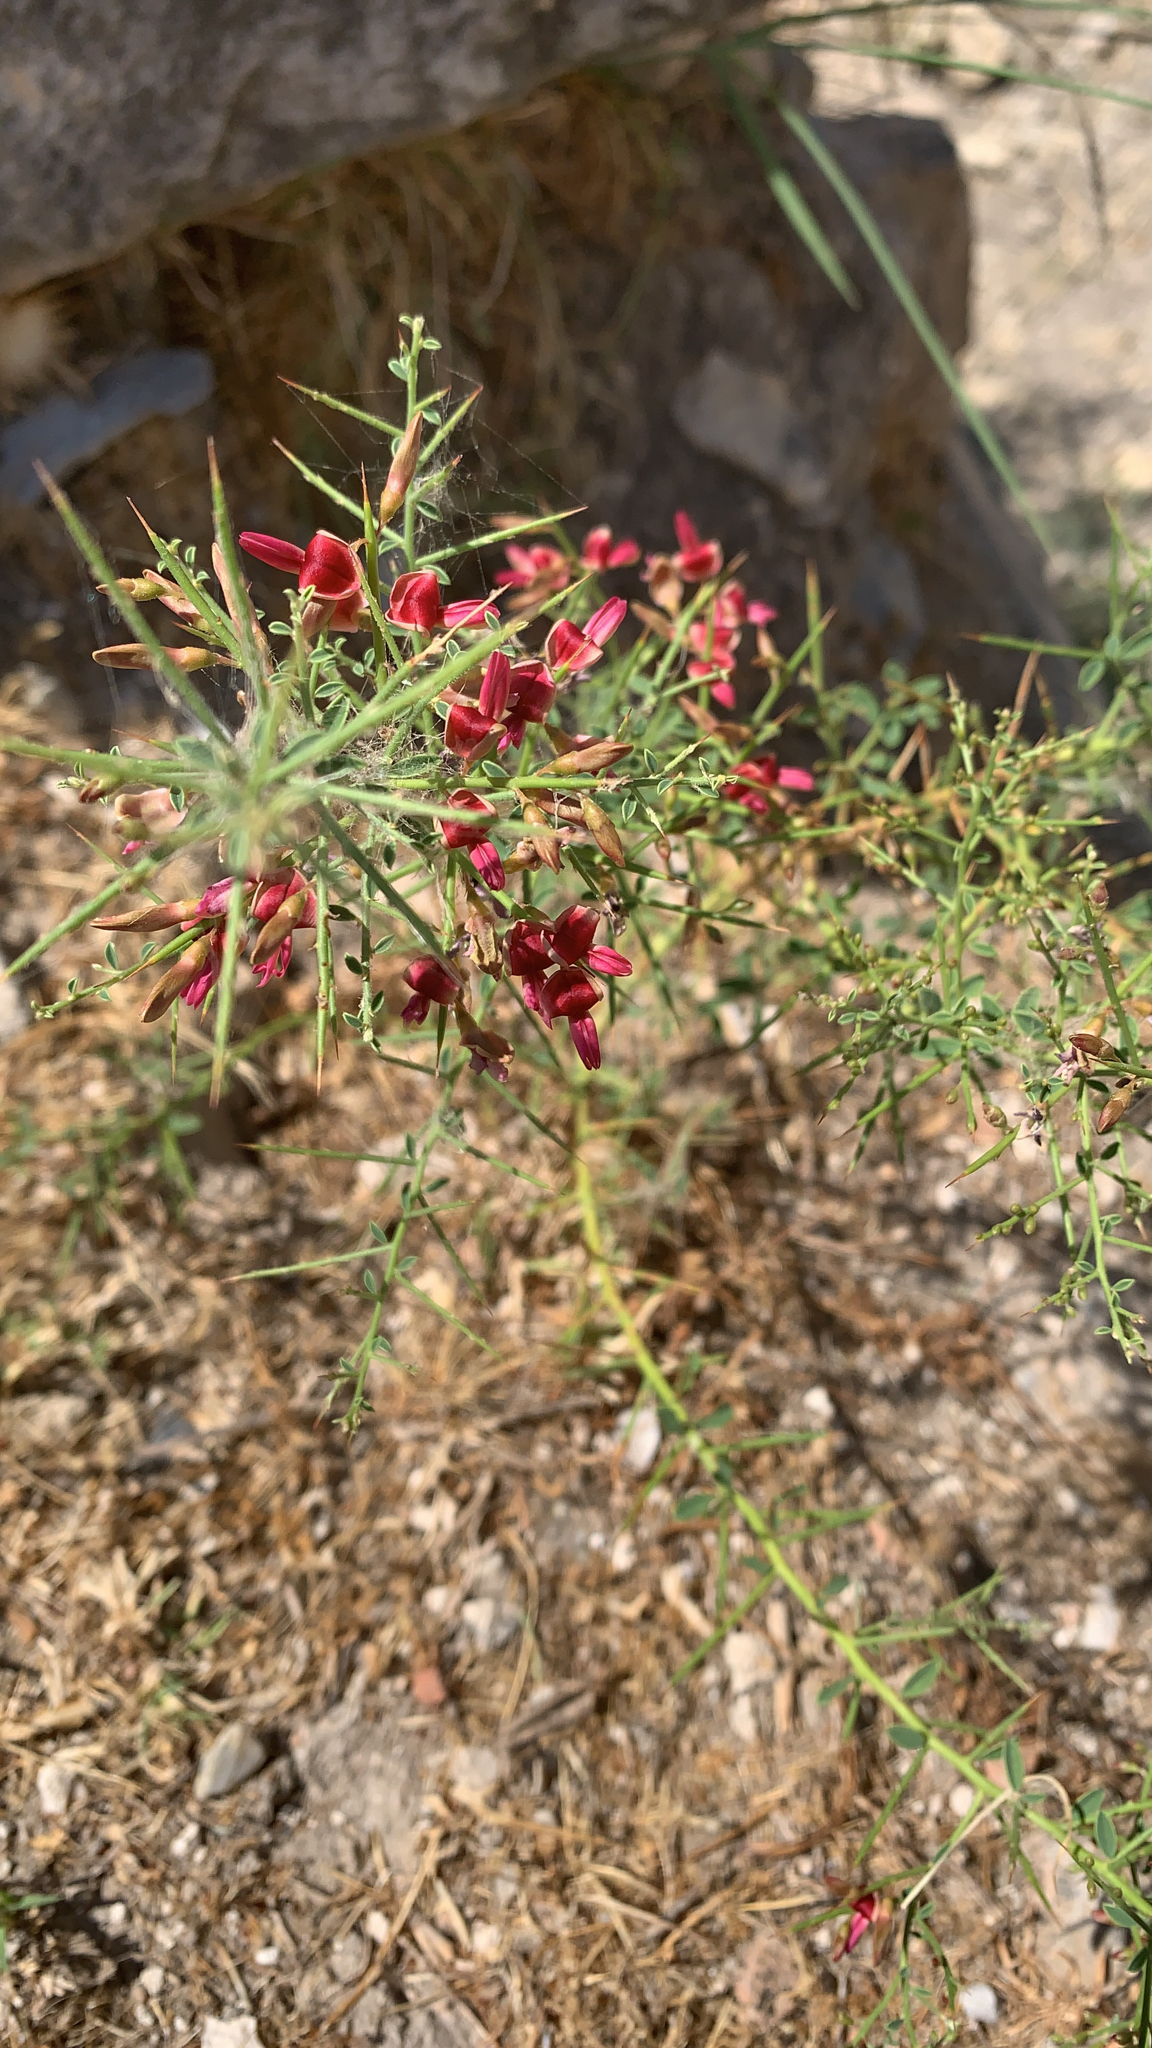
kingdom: Plantae
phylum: Tracheophyta
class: Magnoliopsida
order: Fabales
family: Fabaceae
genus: Alhagi
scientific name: Alhagi graecorum
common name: Persian mannaplant
